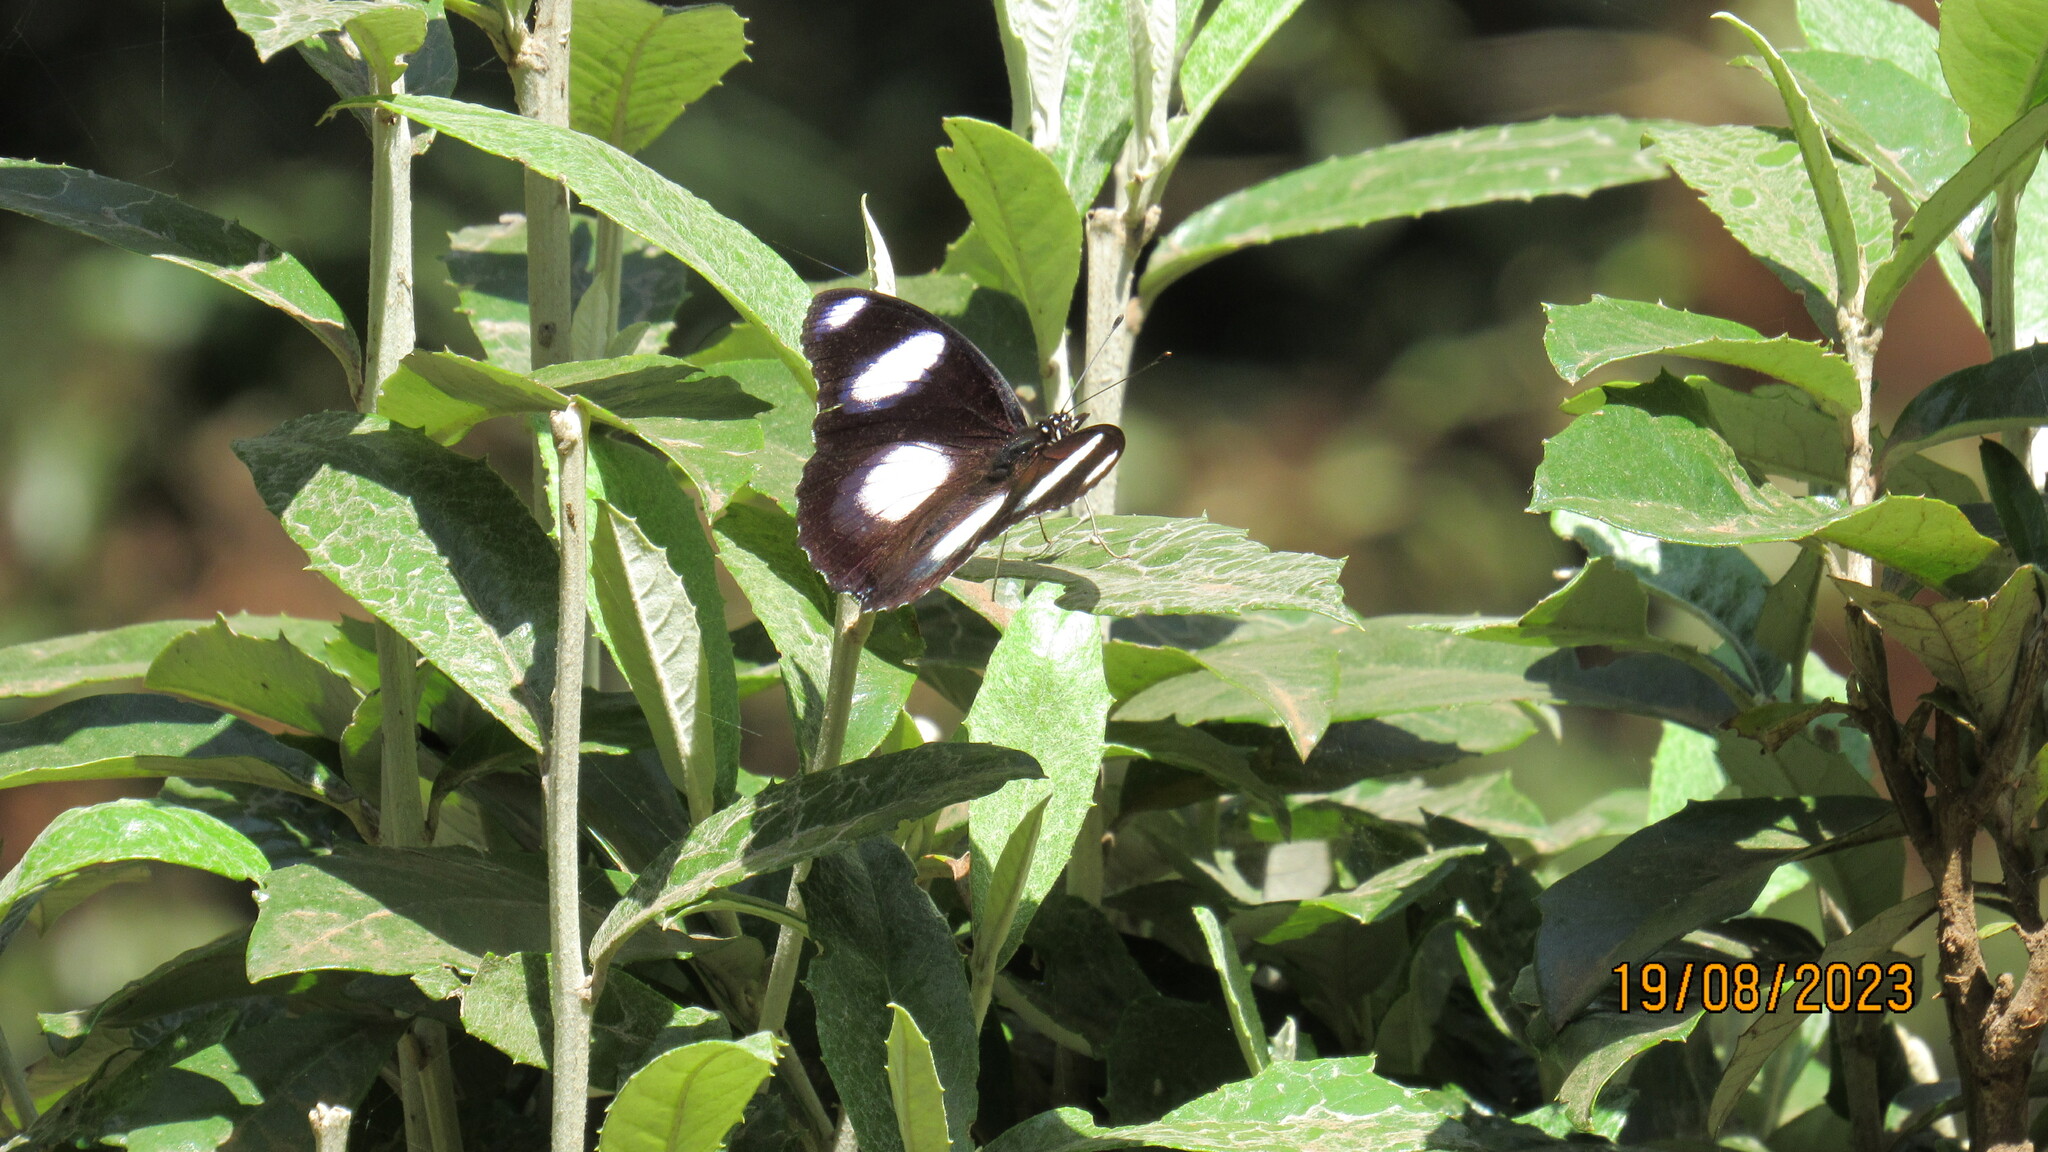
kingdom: Animalia
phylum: Arthropoda
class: Insecta
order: Lepidoptera
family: Nymphalidae
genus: Hypolimnas
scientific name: Hypolimnas misippus
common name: False plain tiger
